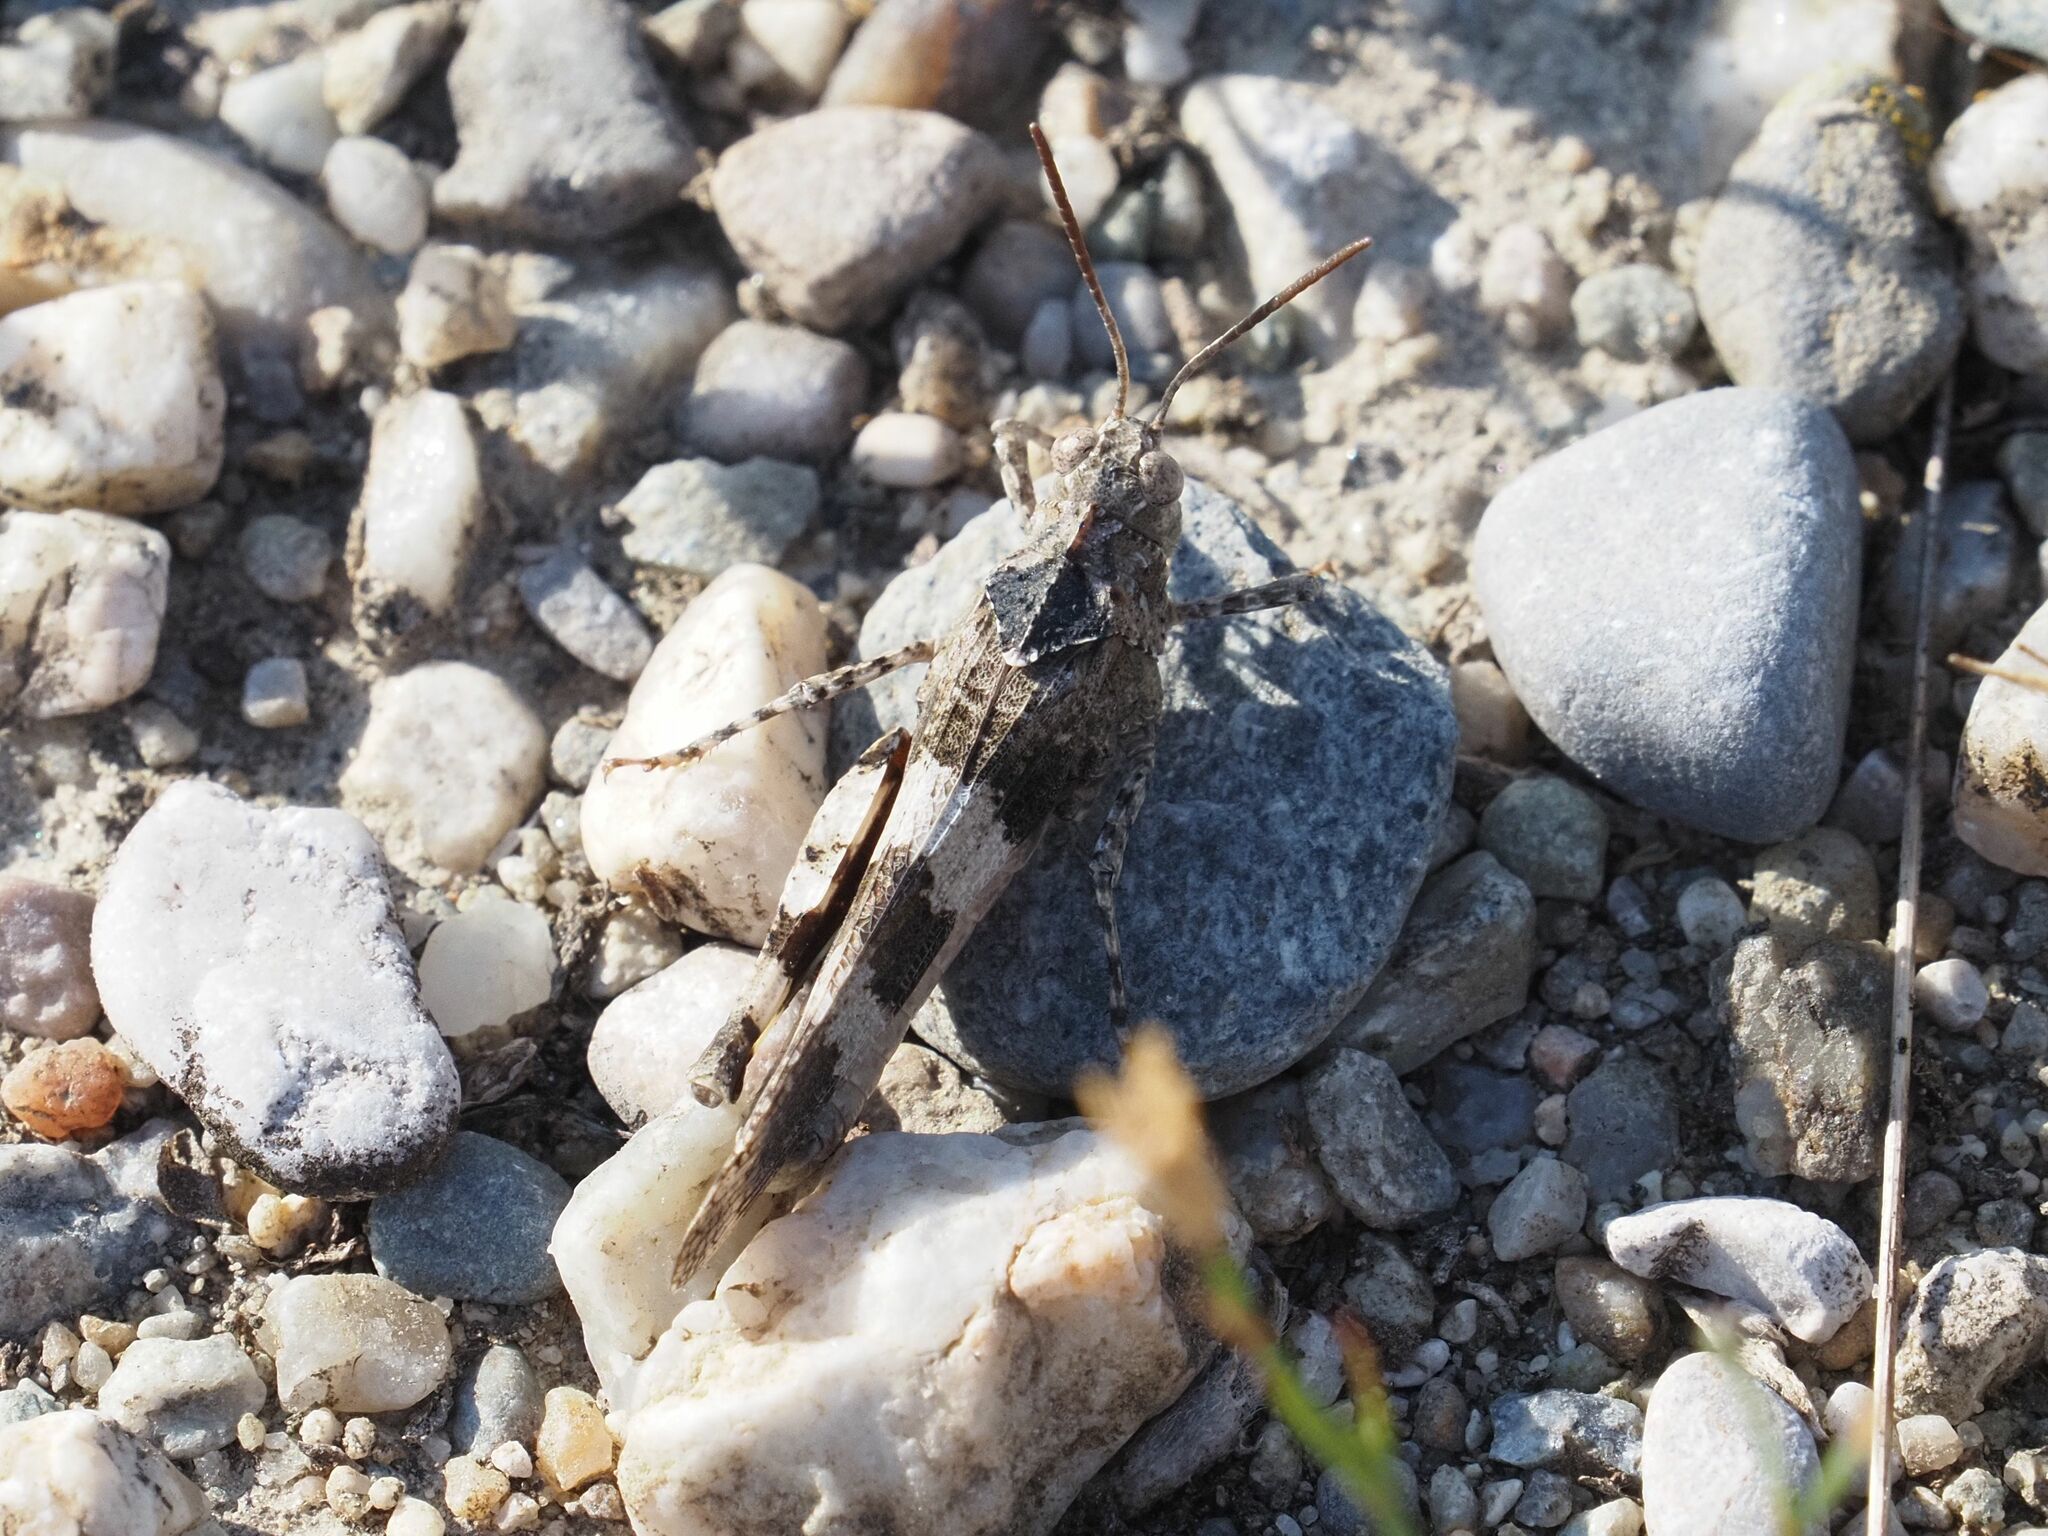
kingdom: Animalia
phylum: Arthropoda
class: Insecta
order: Orthoptera
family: Acrididae
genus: Oedipoda
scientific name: Oedipoda caerulescens
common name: Blue-winged grasshopper
